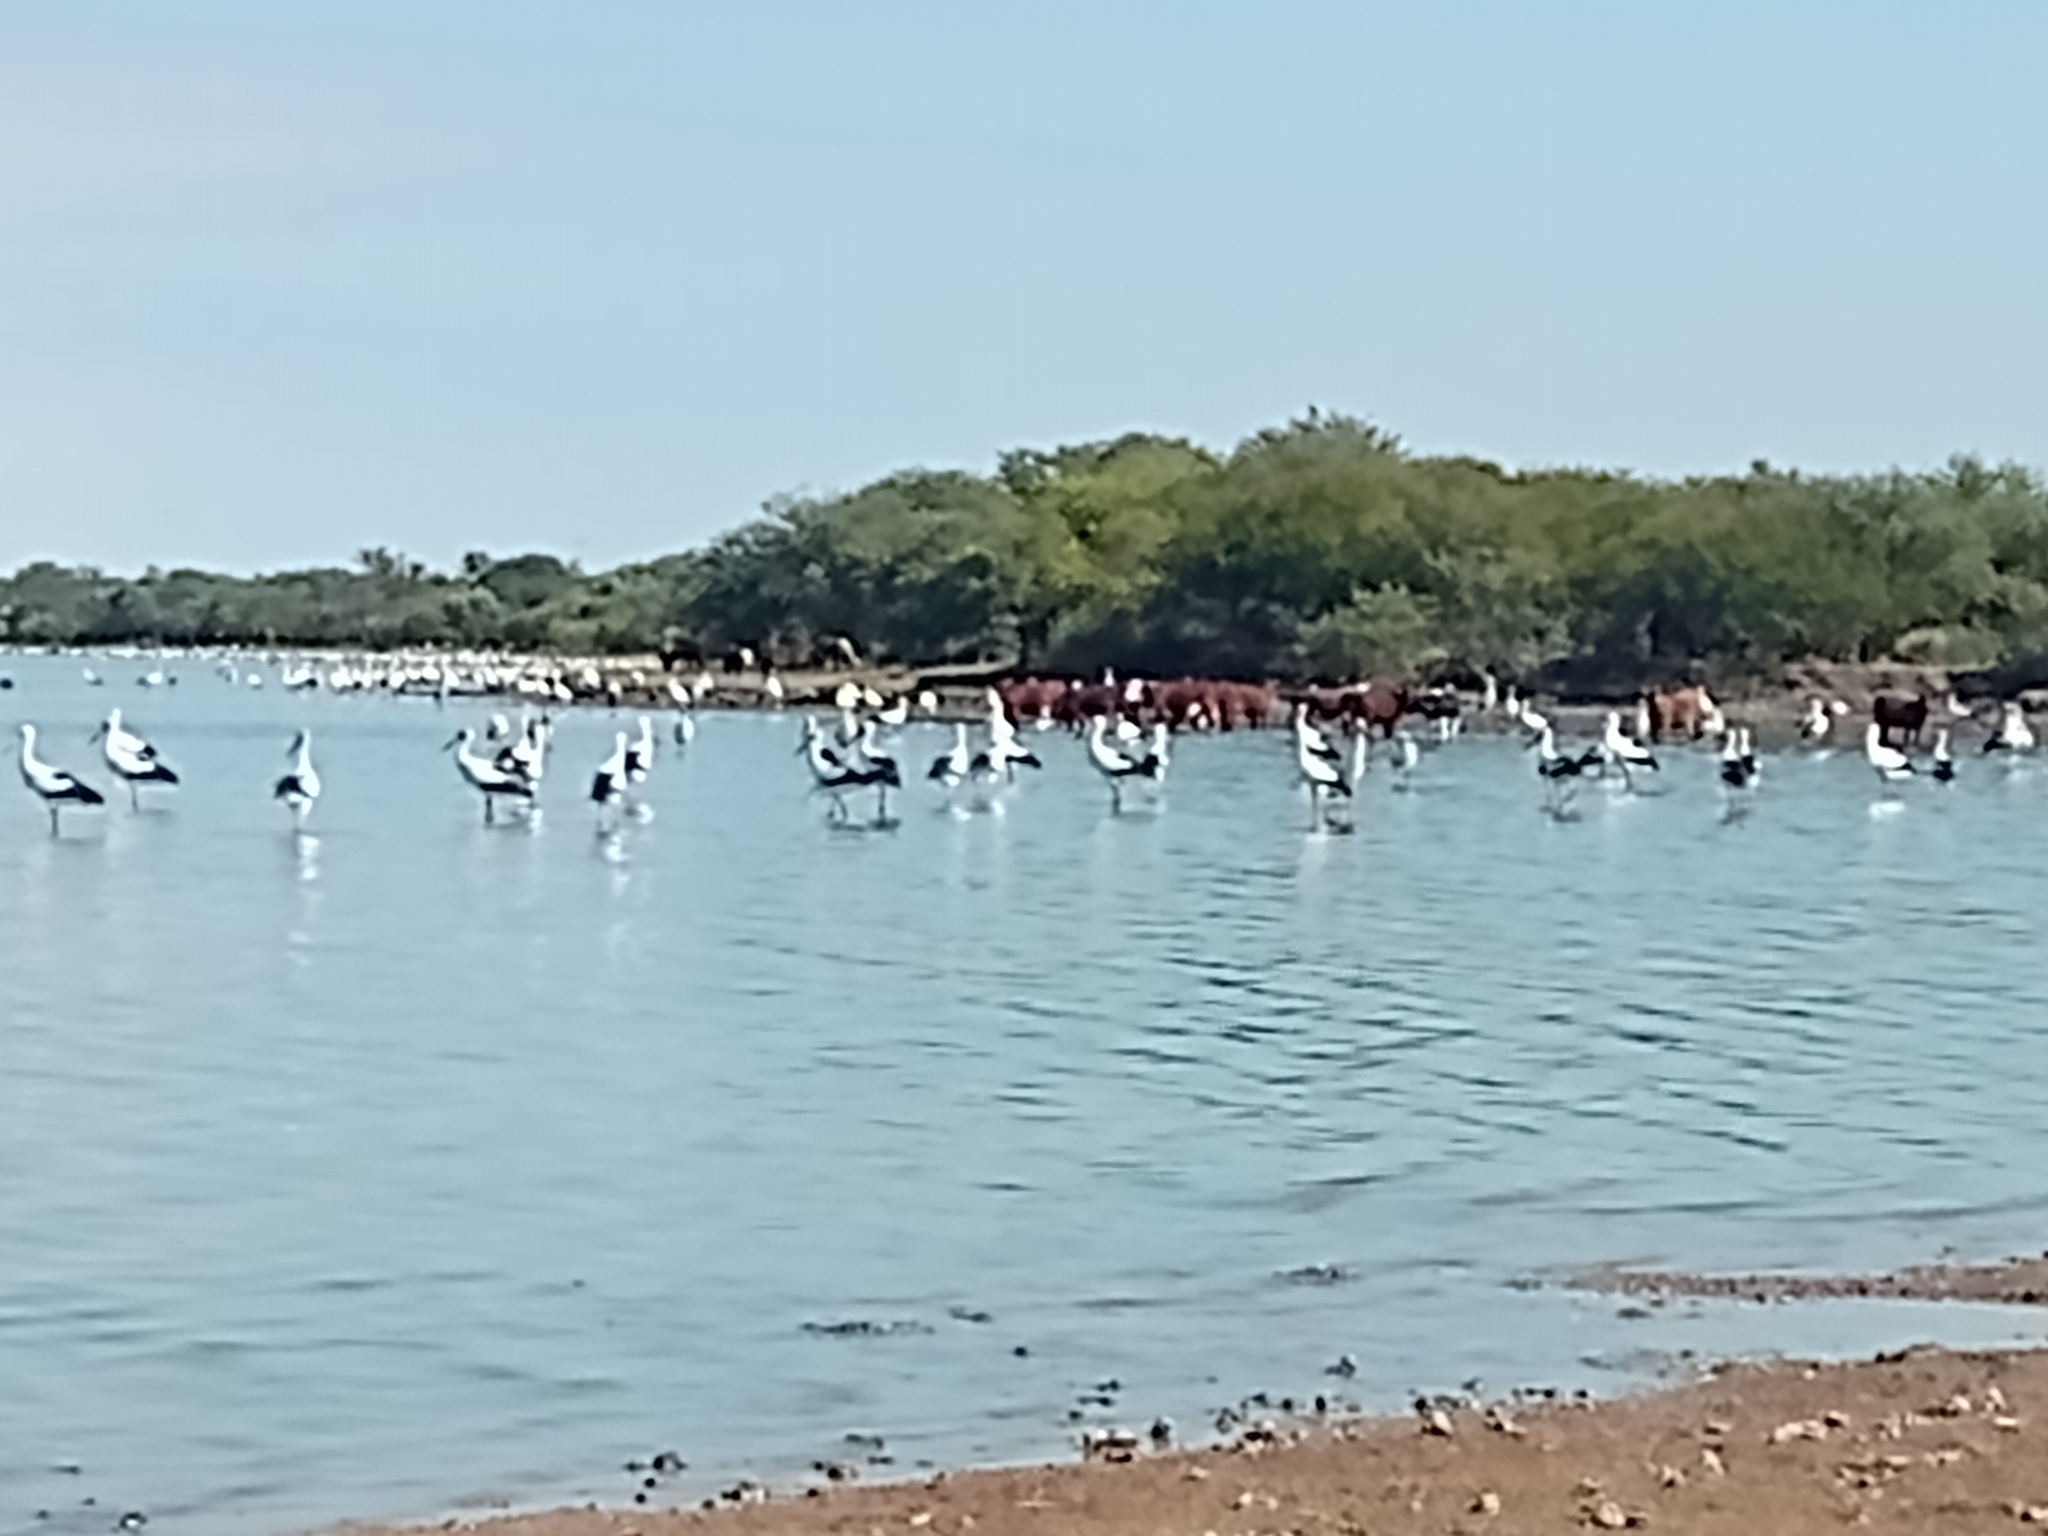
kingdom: Animalia
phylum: Chordata
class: Aves
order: Ciconiiformes
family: Ciconiidae
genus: Ciconia
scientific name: Ciconia maguari
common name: Maguari stork
